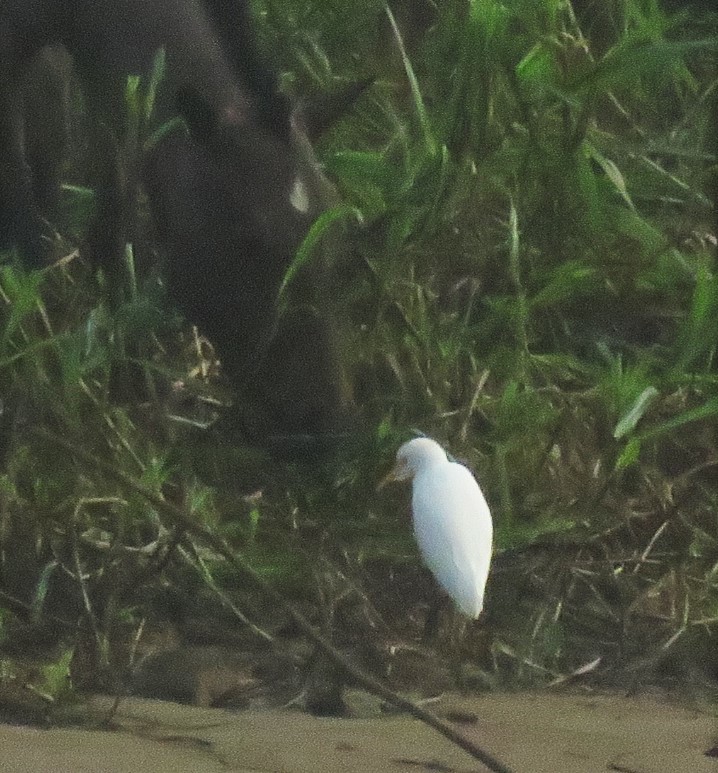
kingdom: Animalia
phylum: Chordata
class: Aves
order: Pelecaniformes
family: Ardeidae
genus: Bubulcus
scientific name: Bubulcus ibis
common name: Cattle egret
